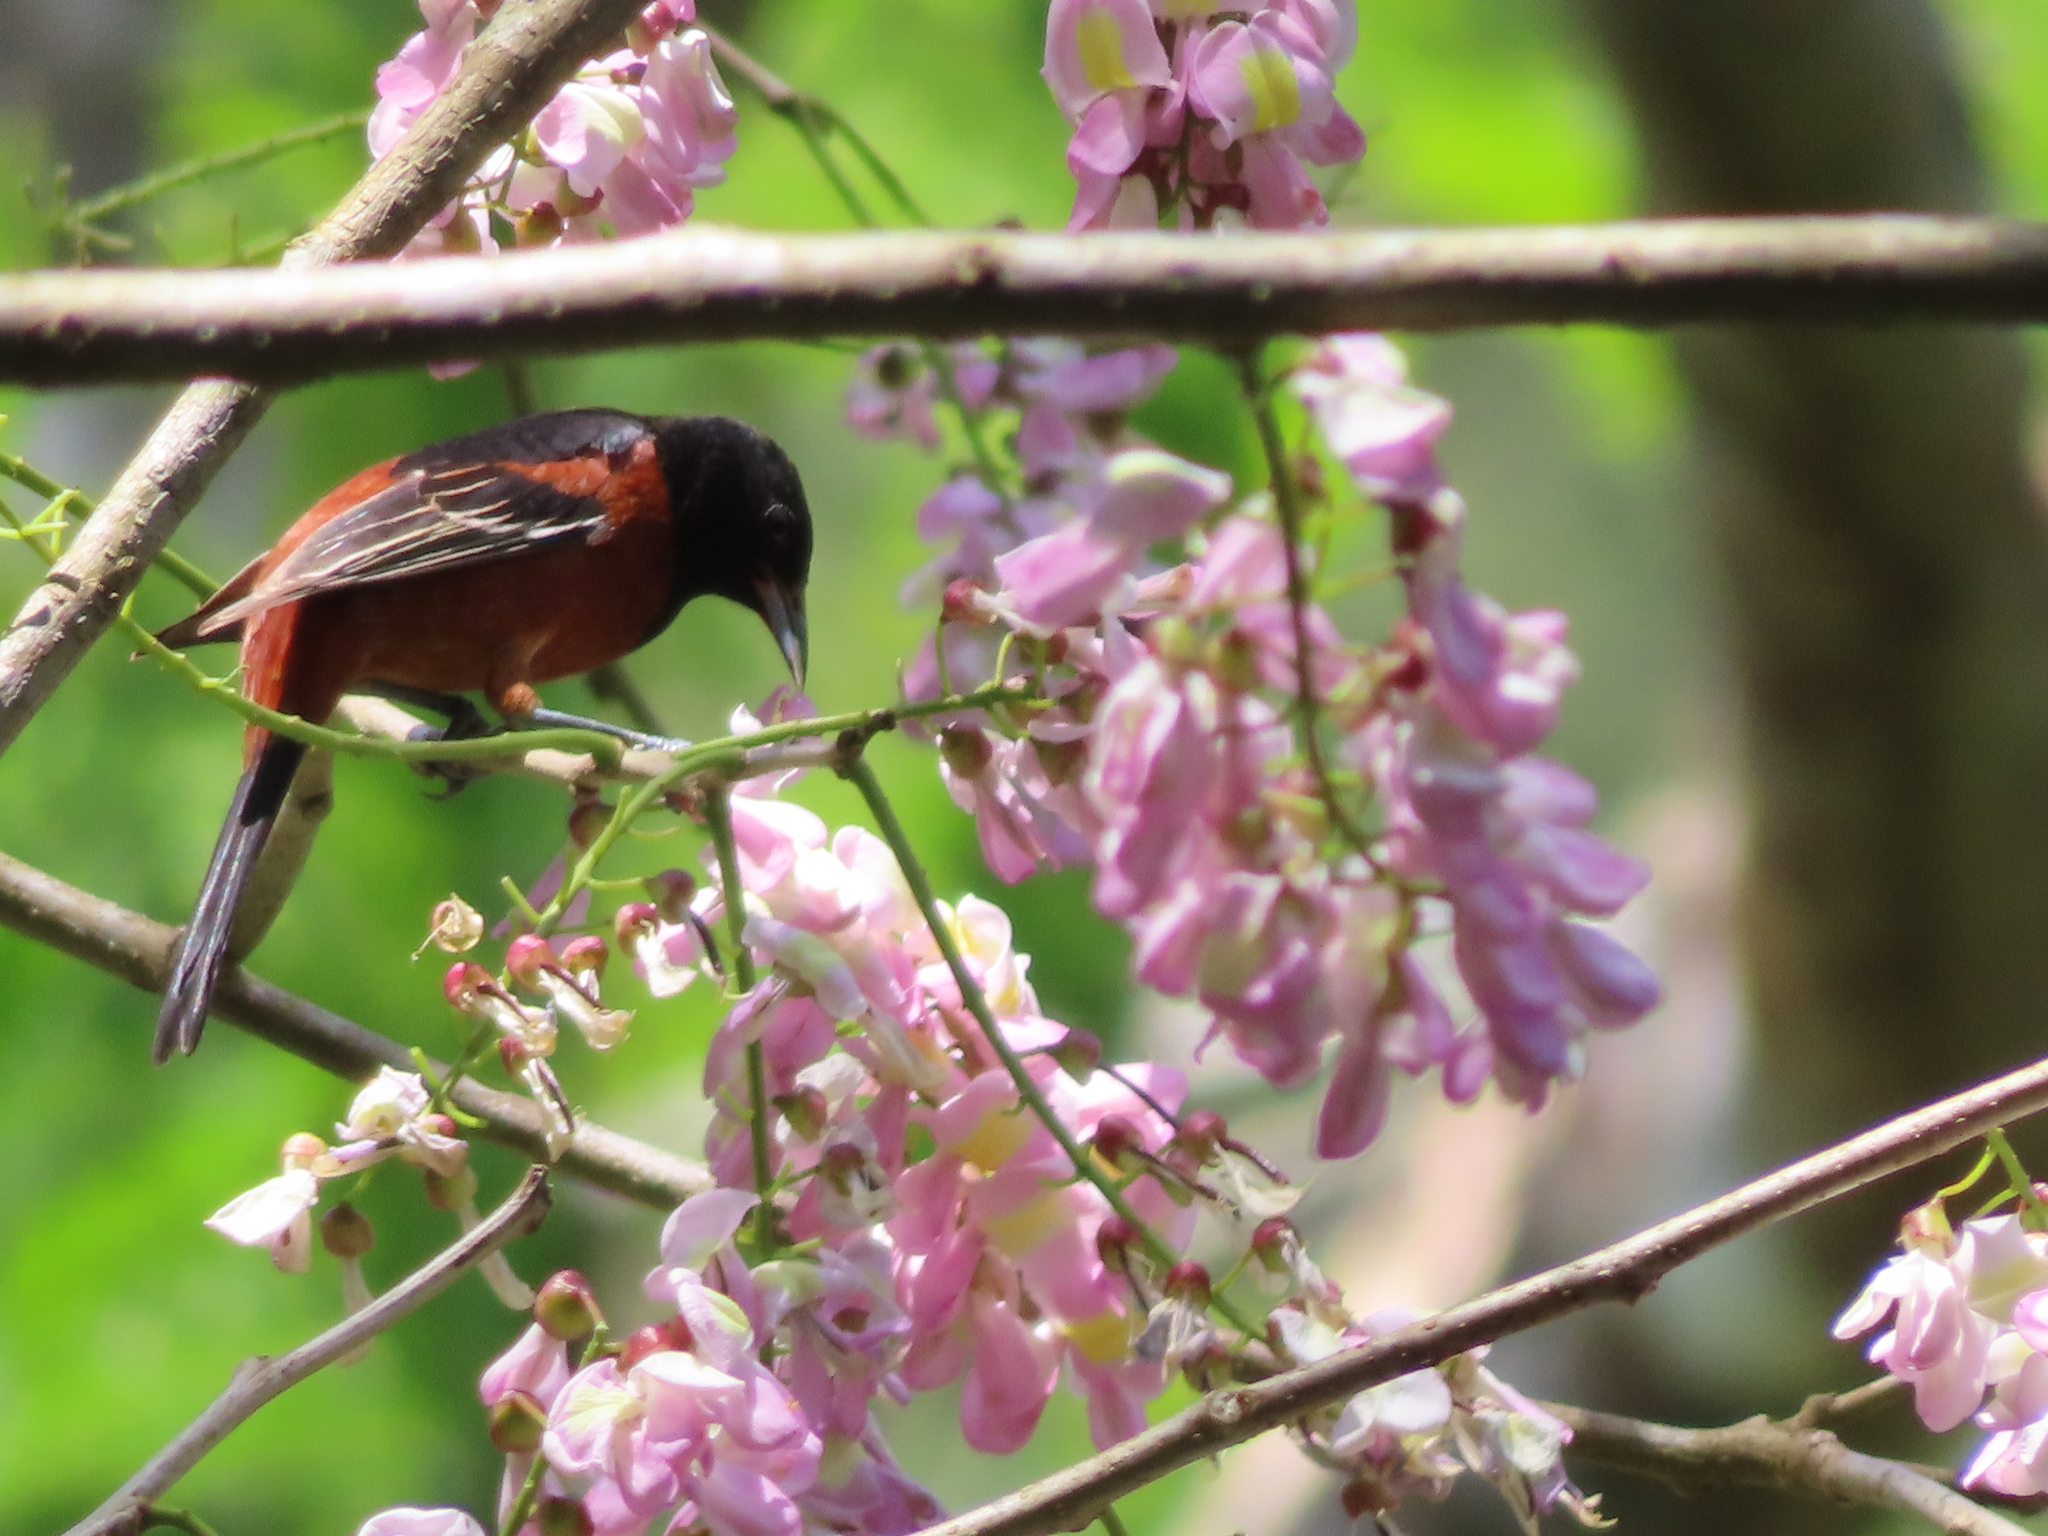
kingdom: Animalia
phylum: Chordata
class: Aves
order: Passeriformes
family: Icteridae
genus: Icterus
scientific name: Icterus spurius
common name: Orchard oriole
